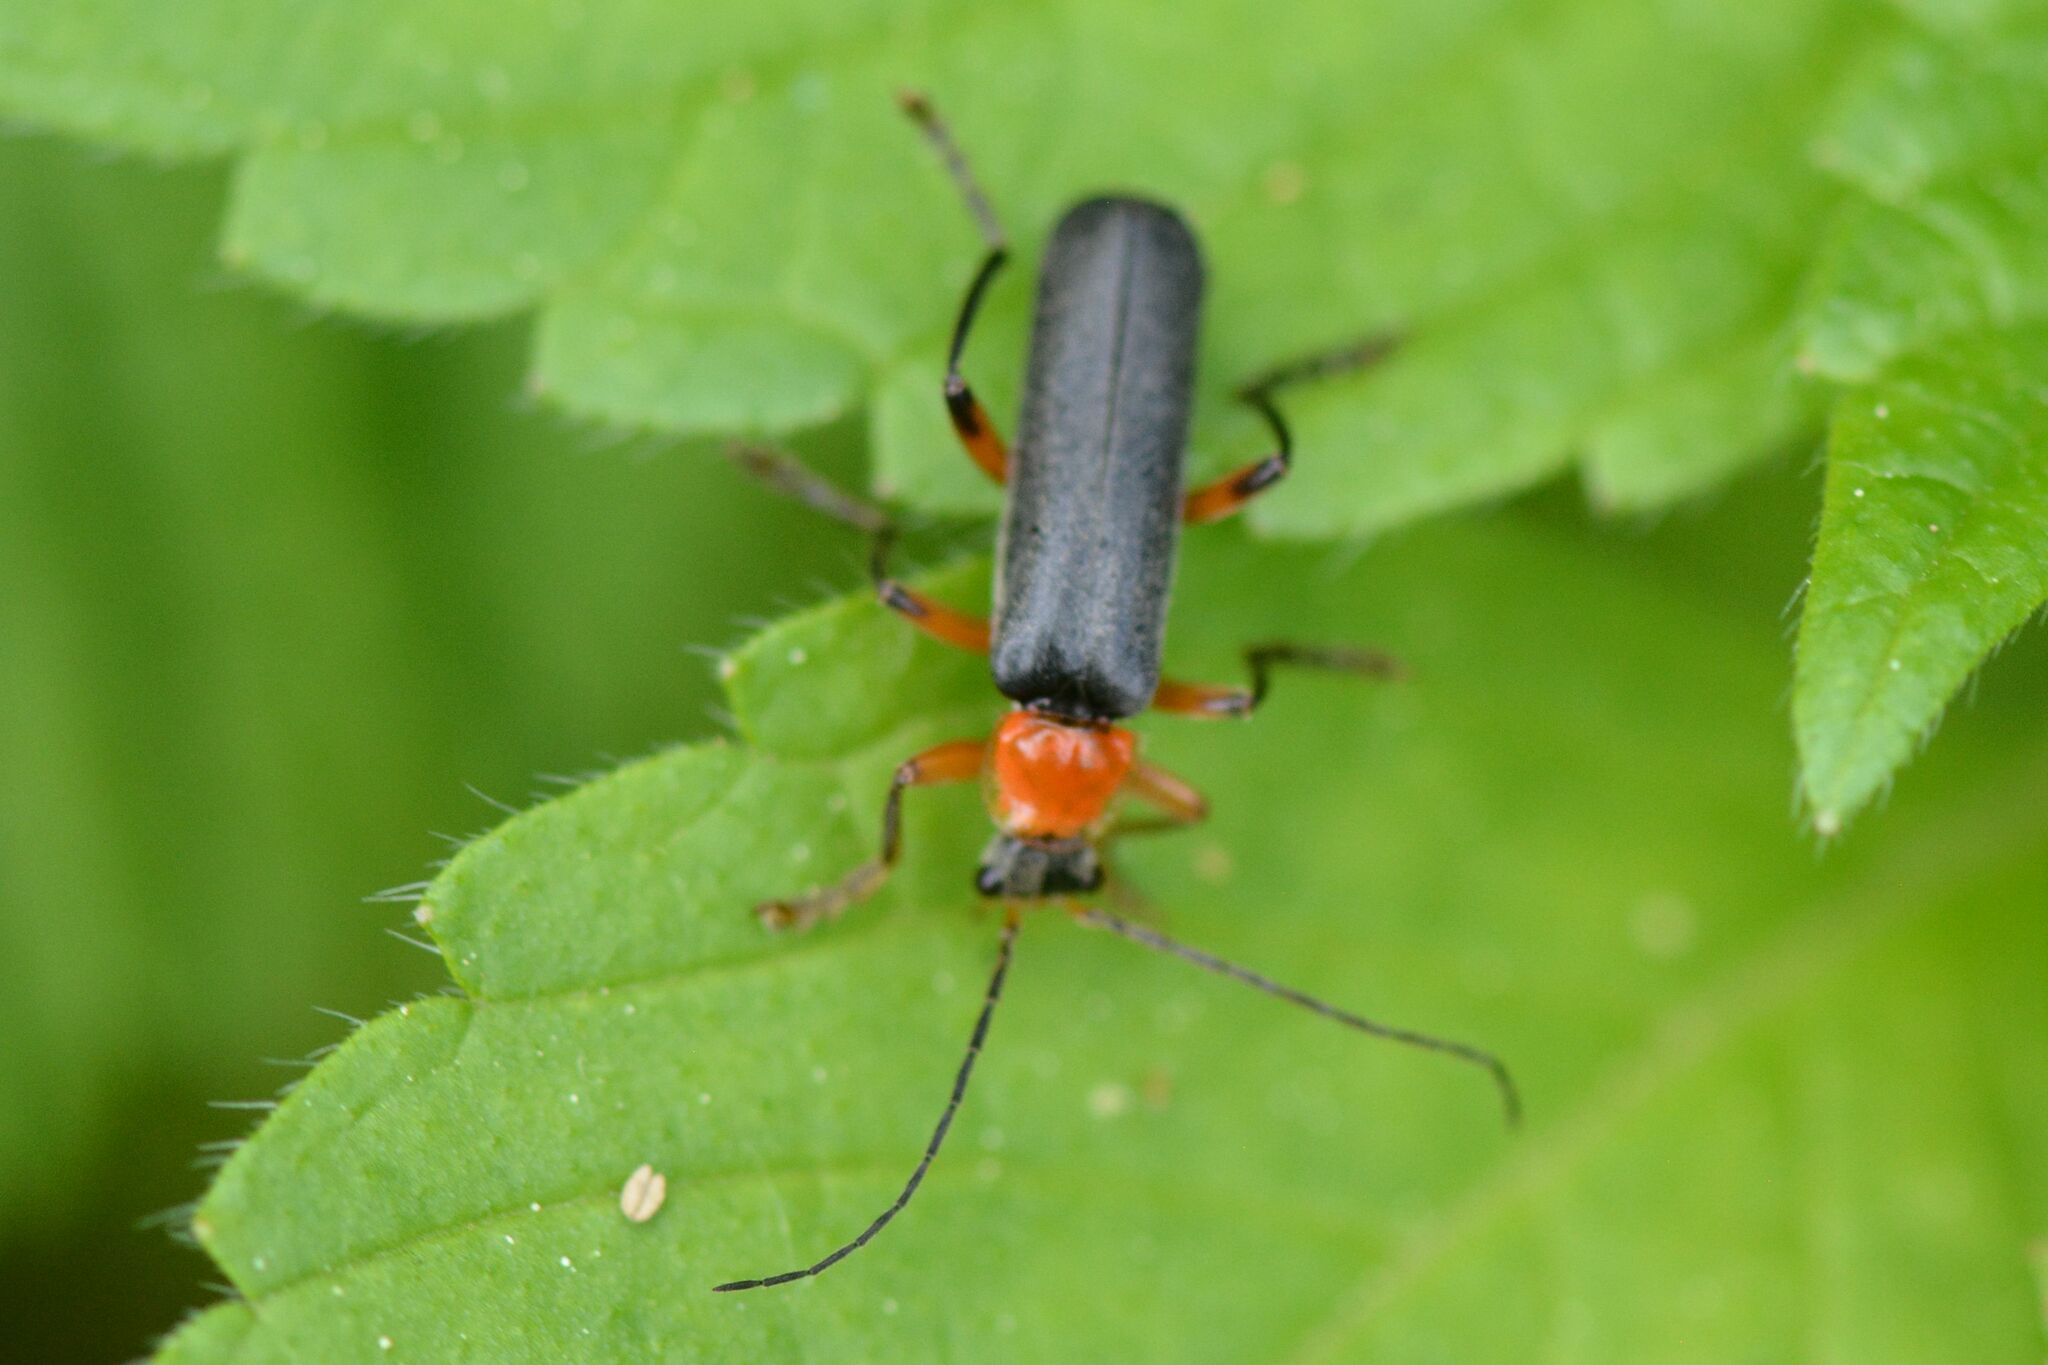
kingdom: Animalia
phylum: Arthropoda
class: Insecta
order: Coleoptera
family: Cantharidae
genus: Cantharis
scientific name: Cantharis pellucida
